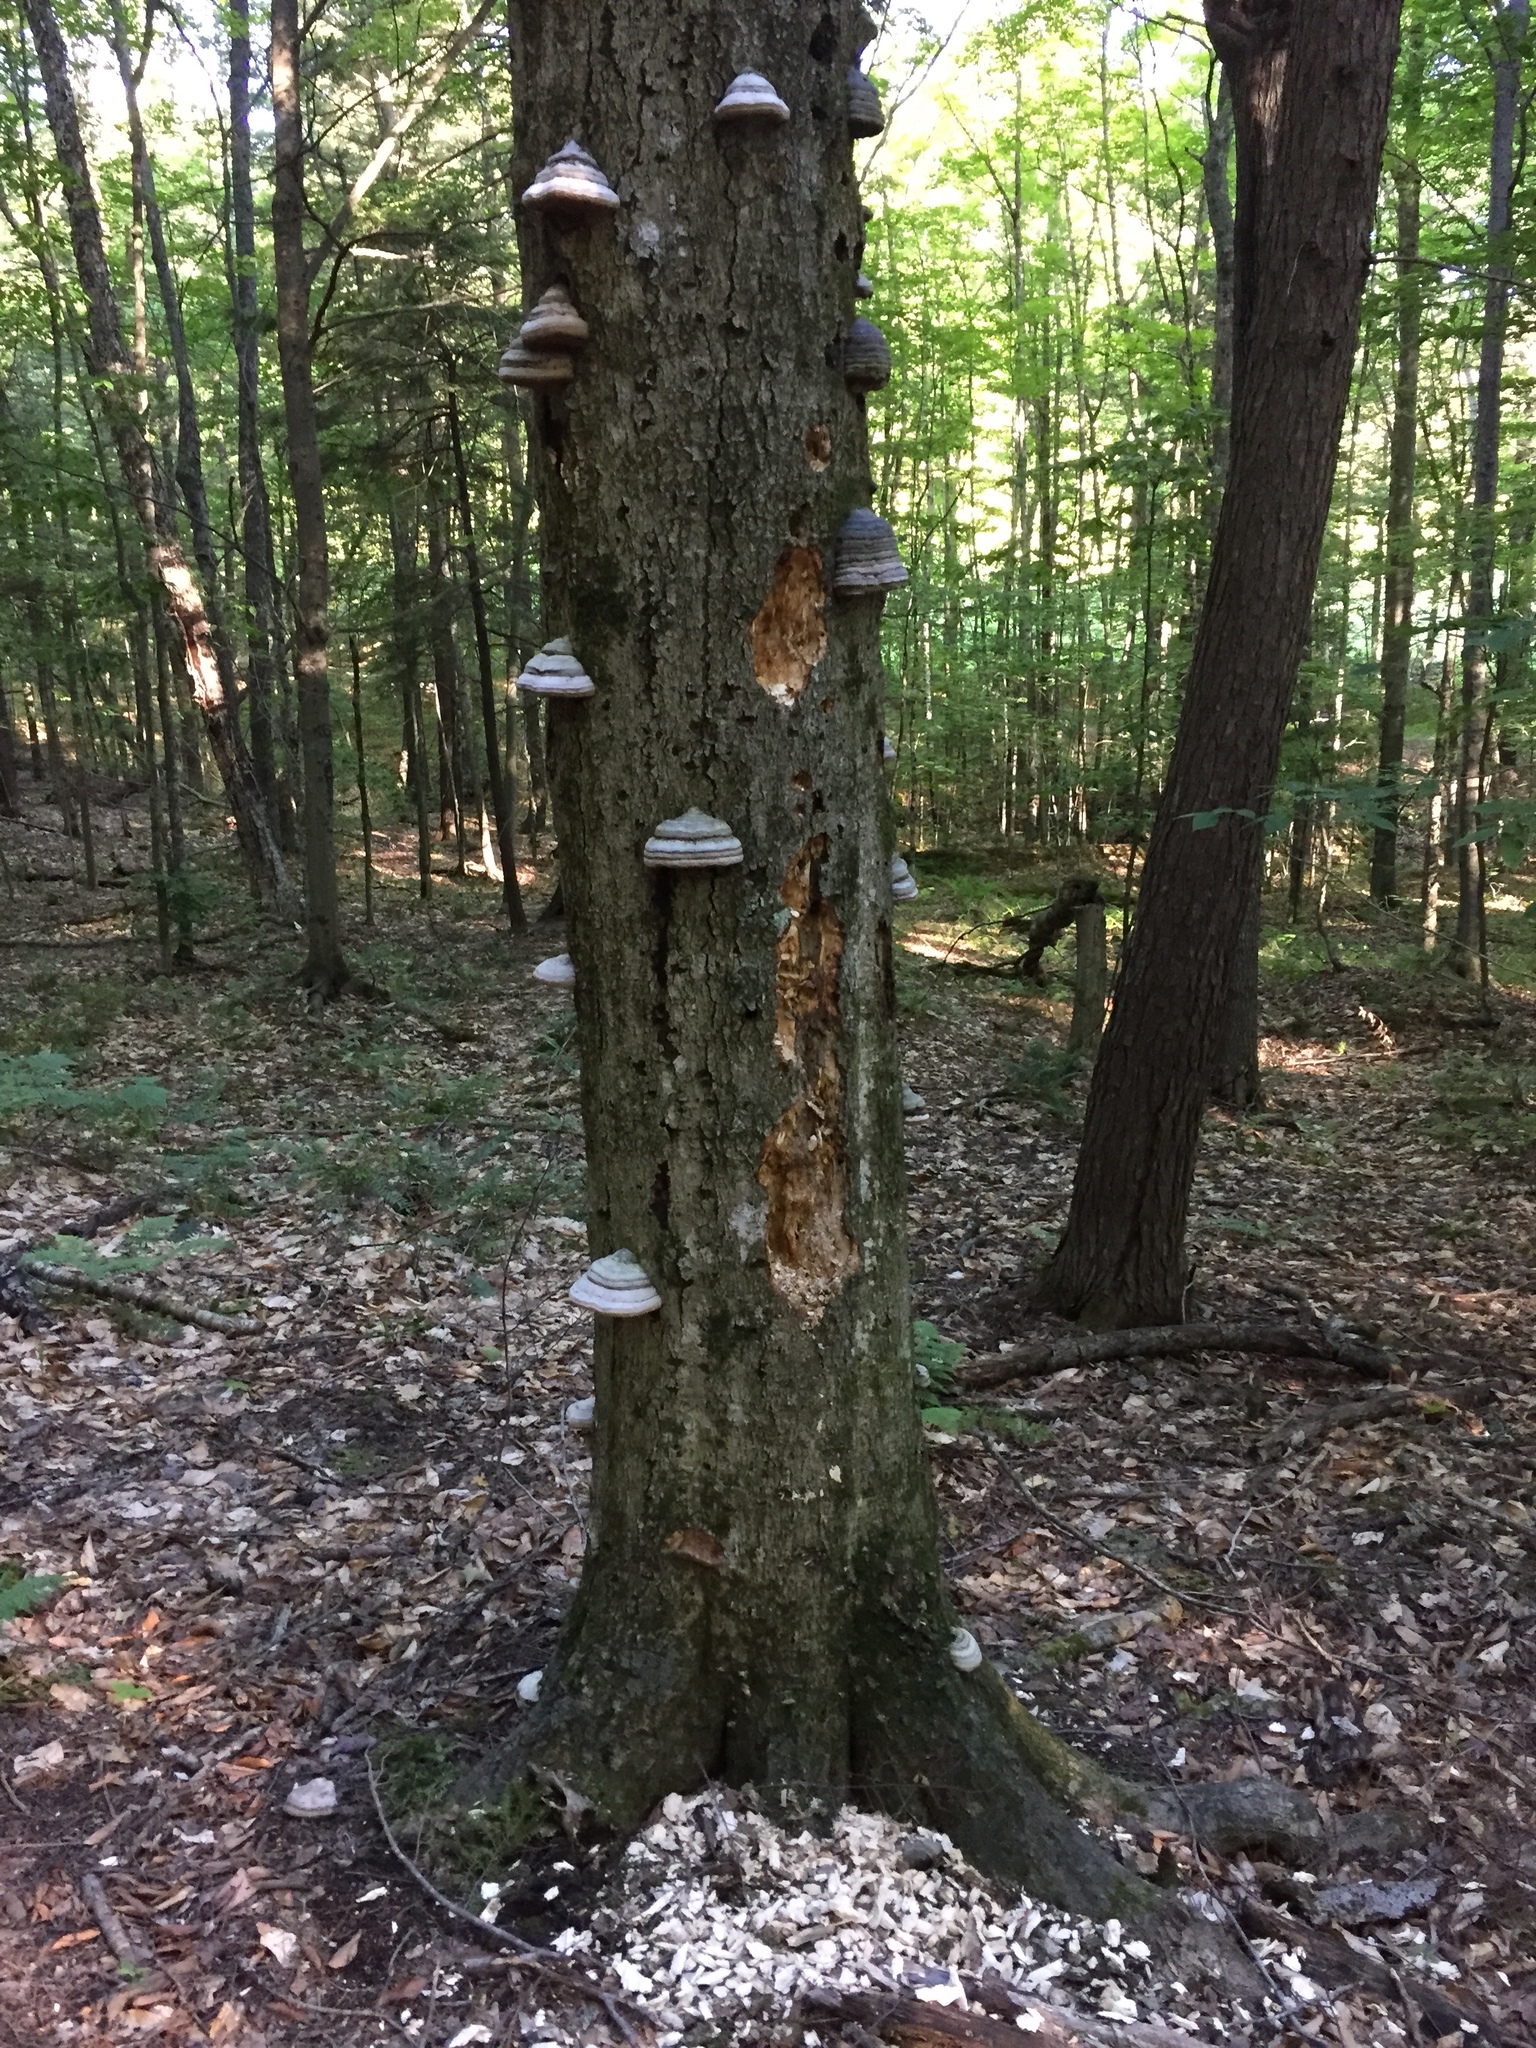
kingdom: Fungi
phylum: Basidiomycota
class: Agaricomycetes
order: Polyporales
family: Polyporaceae
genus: Fomes
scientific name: Fomes fomentarius
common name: Hoof fungus
